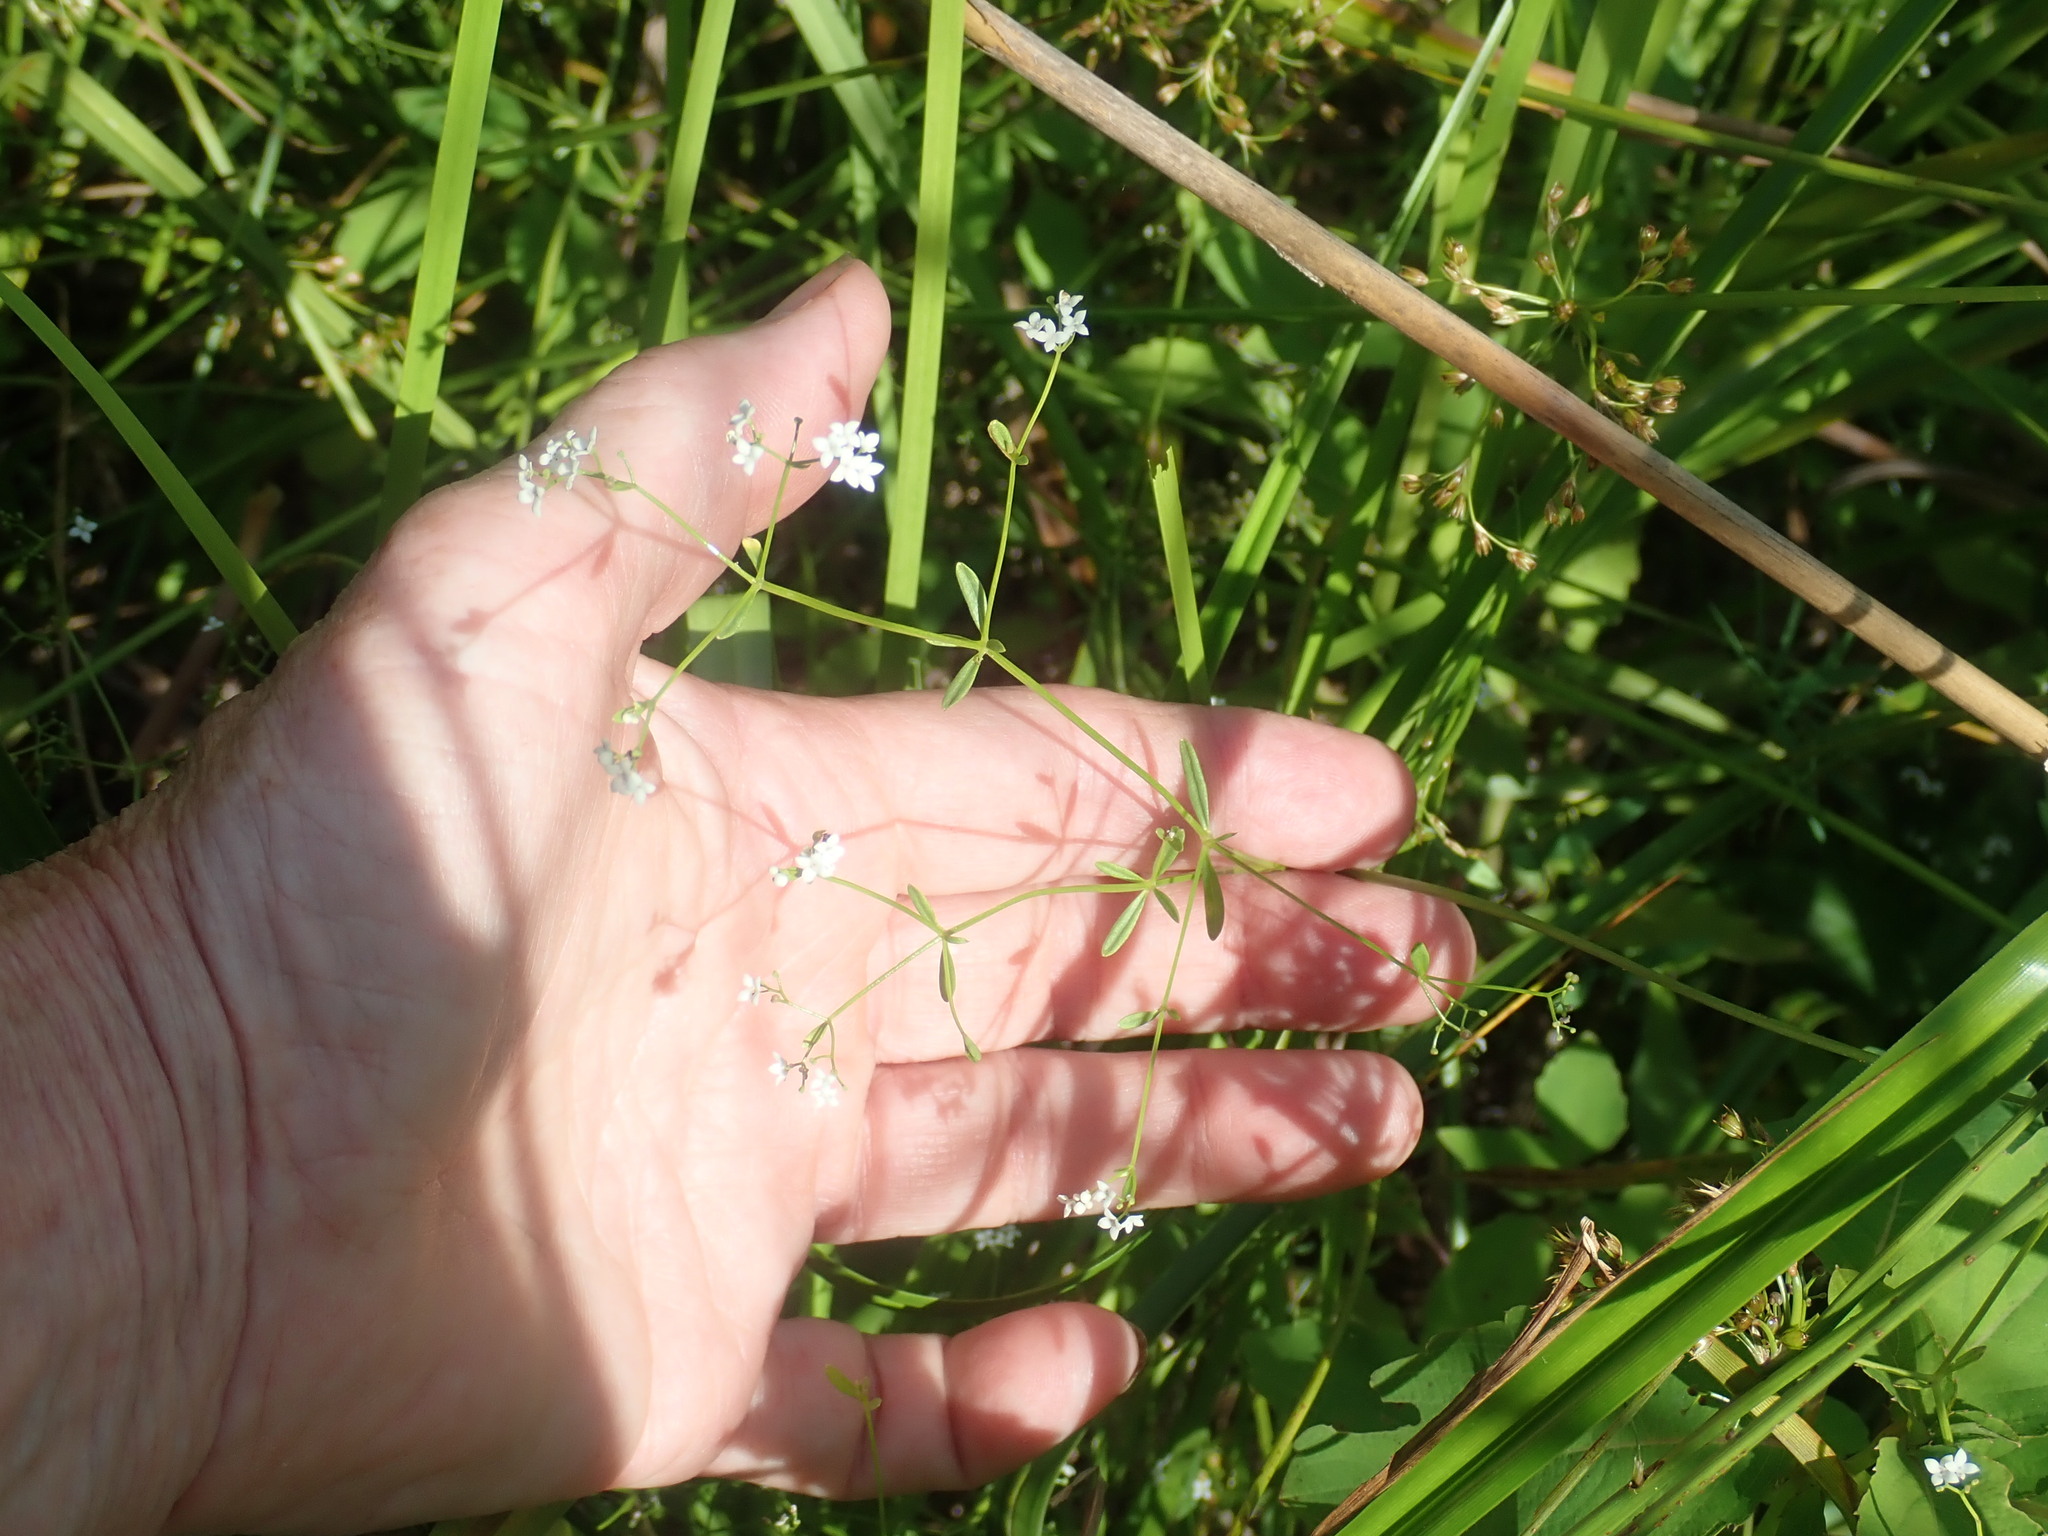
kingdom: Plantae
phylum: Tracheophyta
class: Magnoliopsida
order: Gentianales
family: Rubiaceae
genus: Galium
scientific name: Galium palustre
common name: Common marsh-bedstraw
